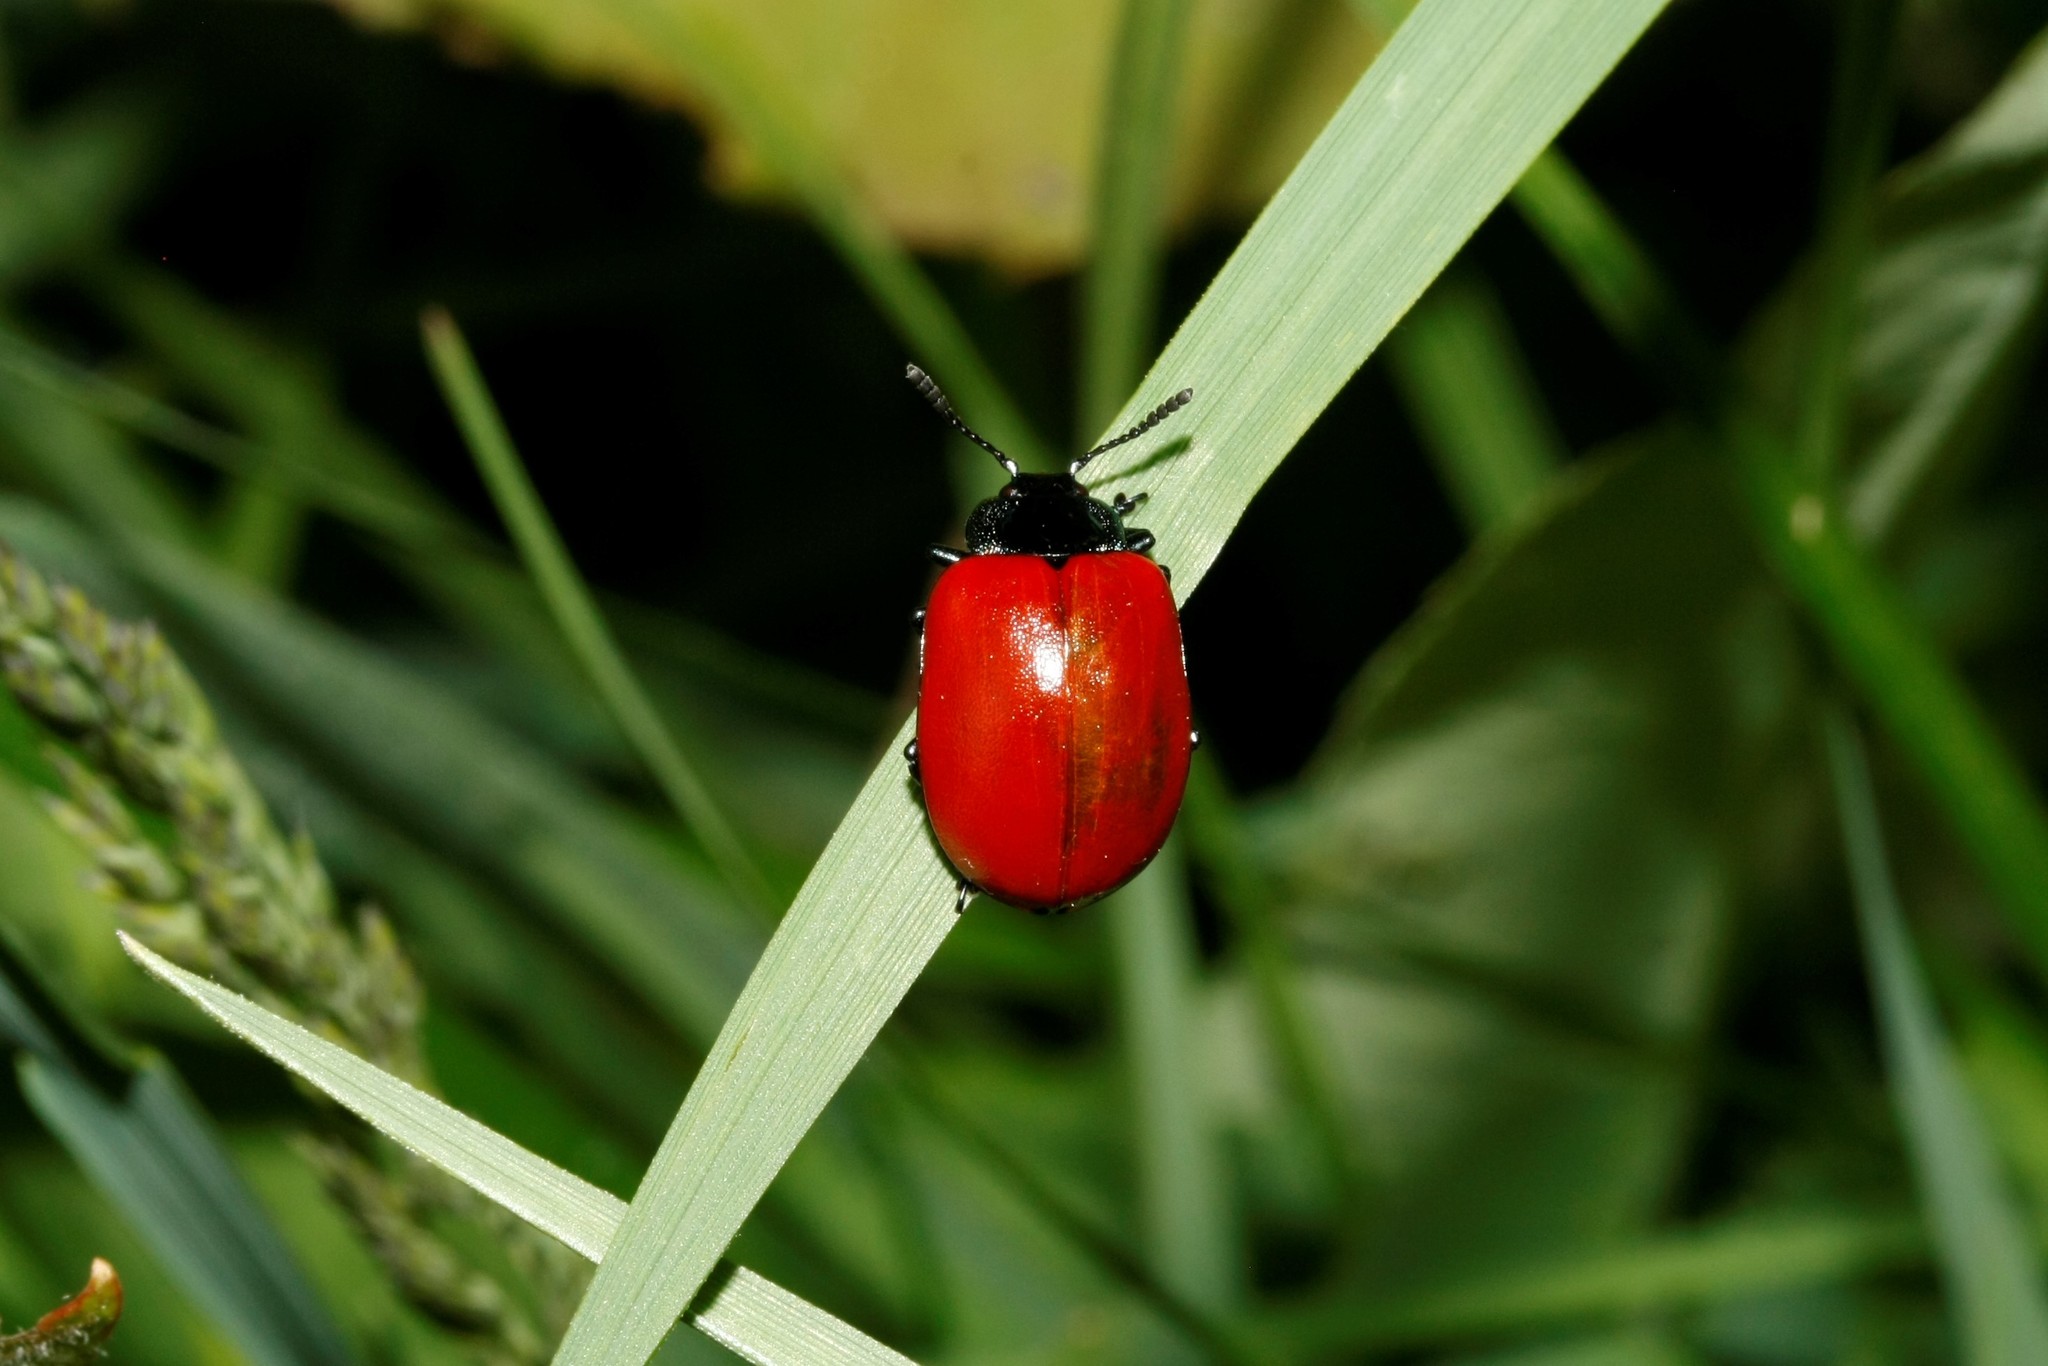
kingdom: Animalia
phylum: Arthropoda
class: Insecta
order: Coleoptera
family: Chrysomelidae
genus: Chrysomela
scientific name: Chrysomela populi
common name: Red poplar leaf beetle
